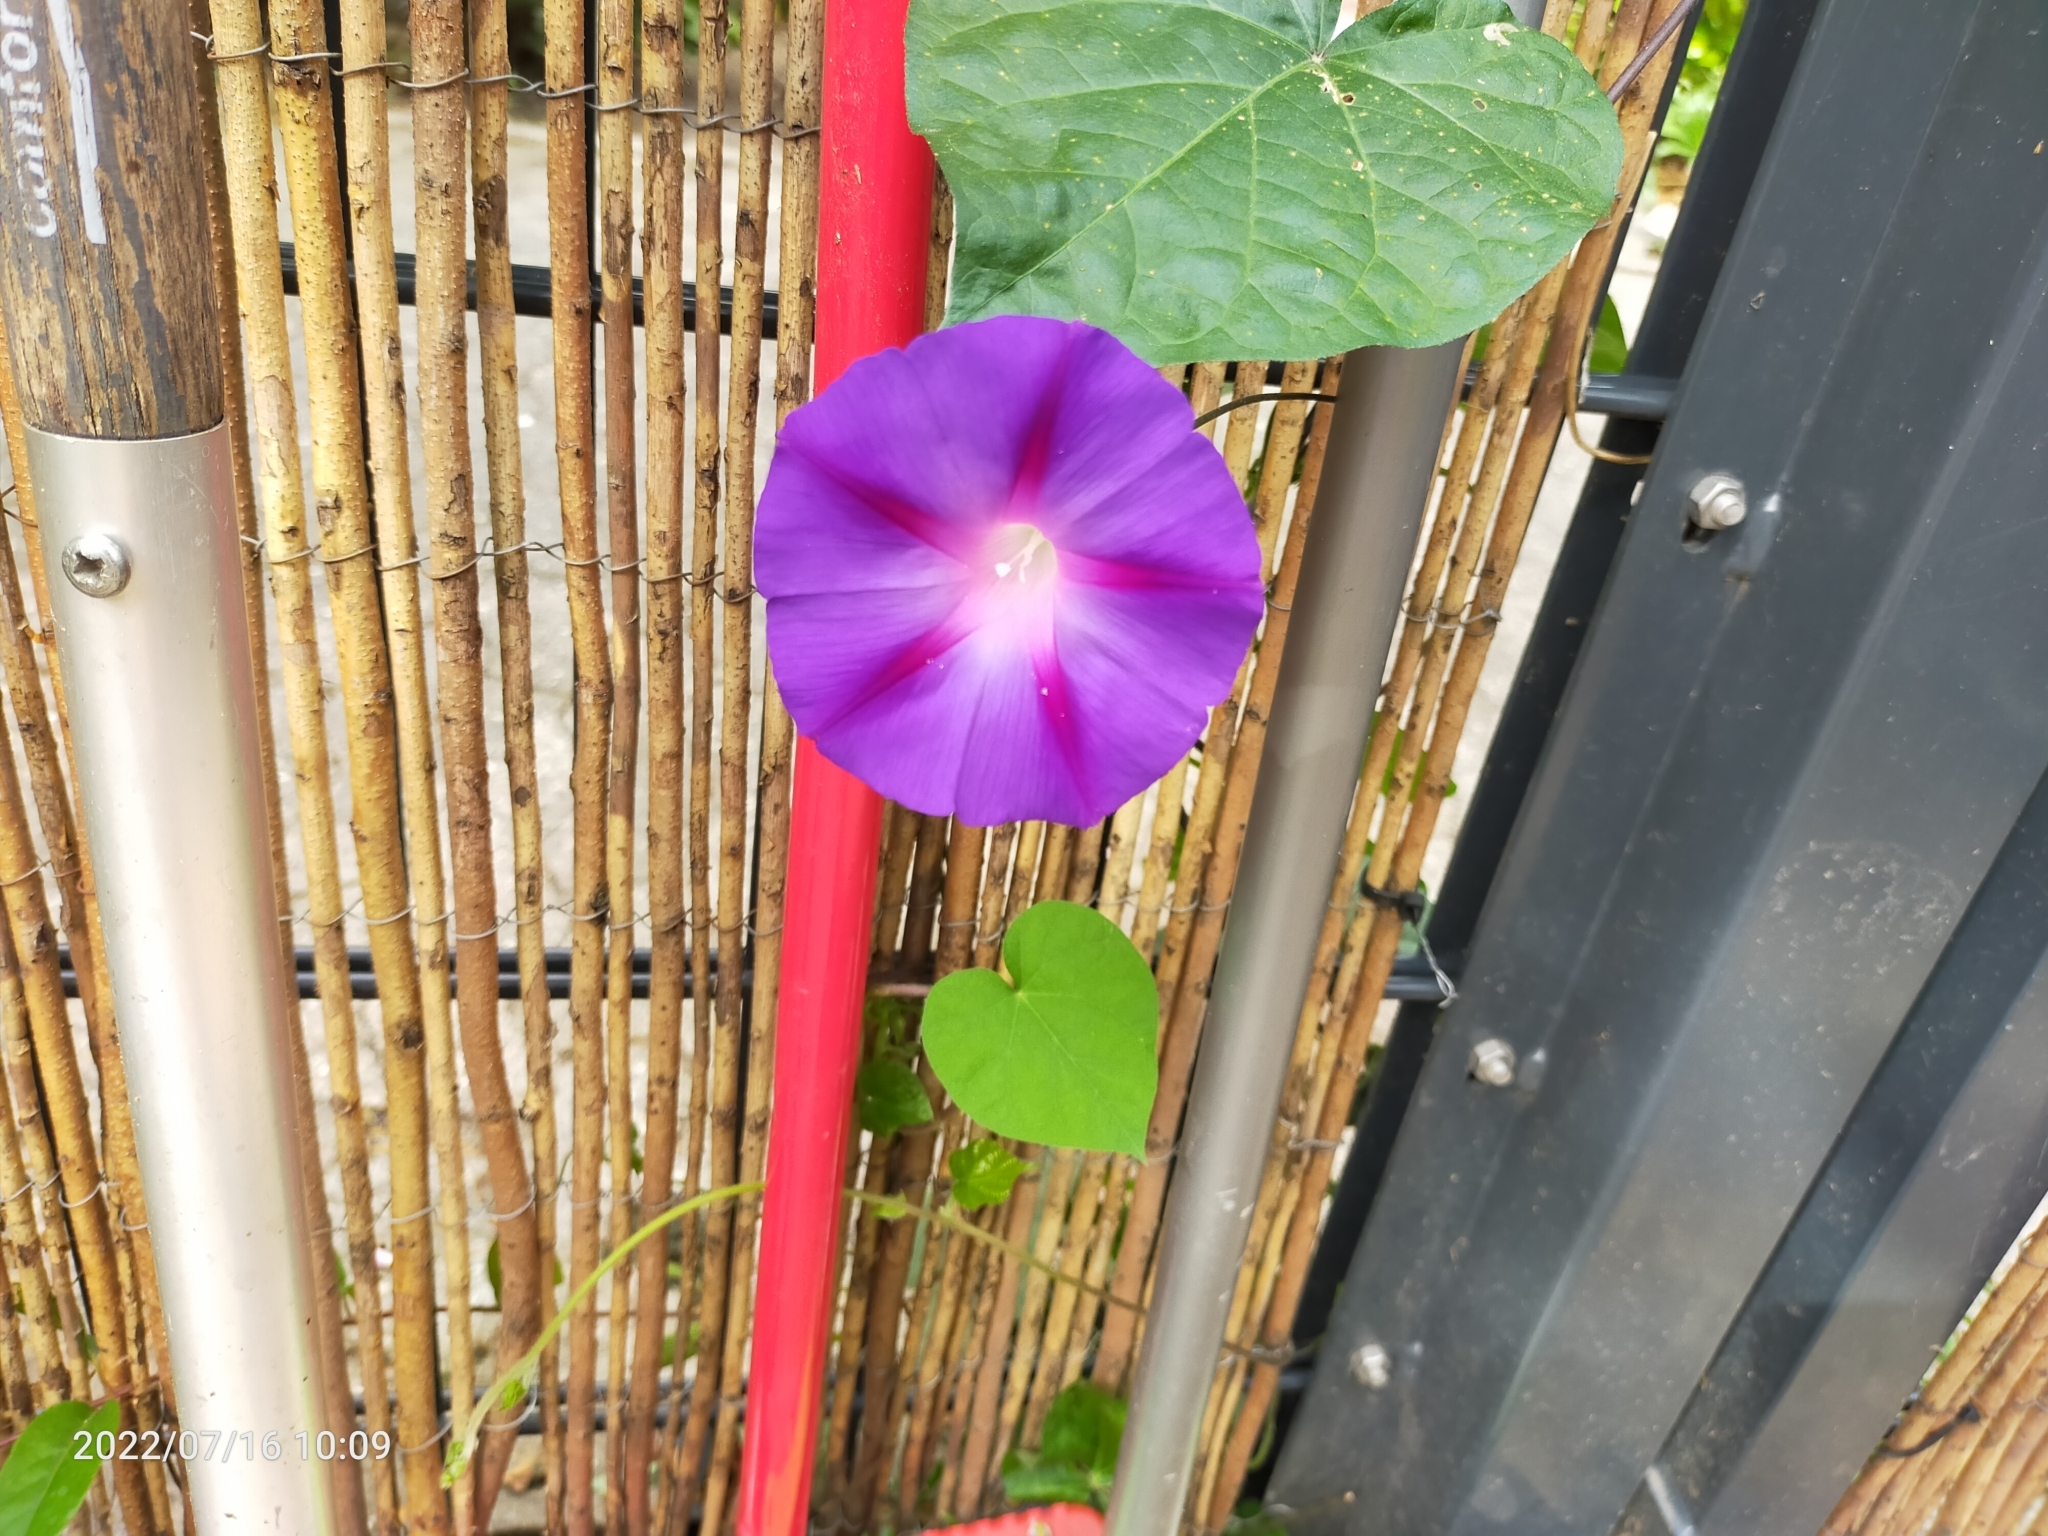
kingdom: Plantae
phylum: Tracheophyta
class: Magnoliopsida
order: Solanales
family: Convolvulaceae
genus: Ipomoea
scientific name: Ipomoea purpurea
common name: Common morning-glory
